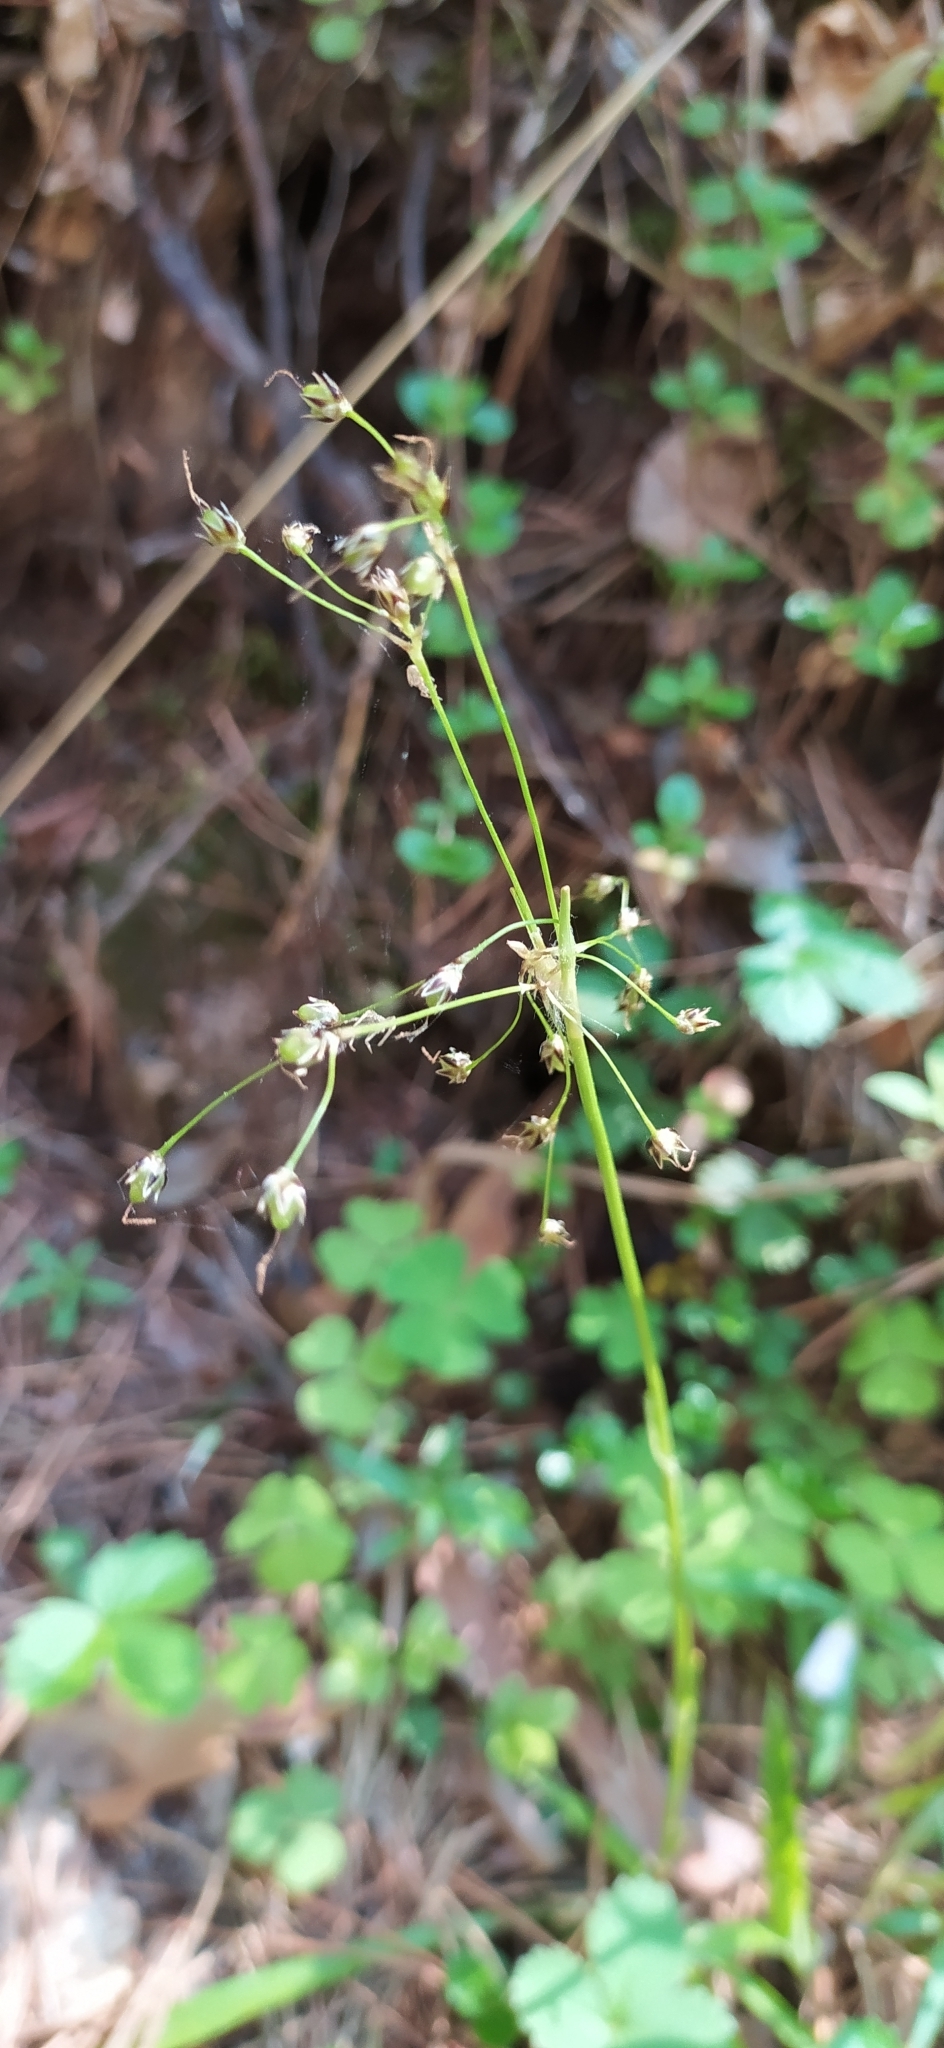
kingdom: Plantae
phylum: Tracheophyta
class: Liliopsida
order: Poales
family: Juncaceae
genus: Luzula
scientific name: Luzula pilosa
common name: Hairy wood-rush
